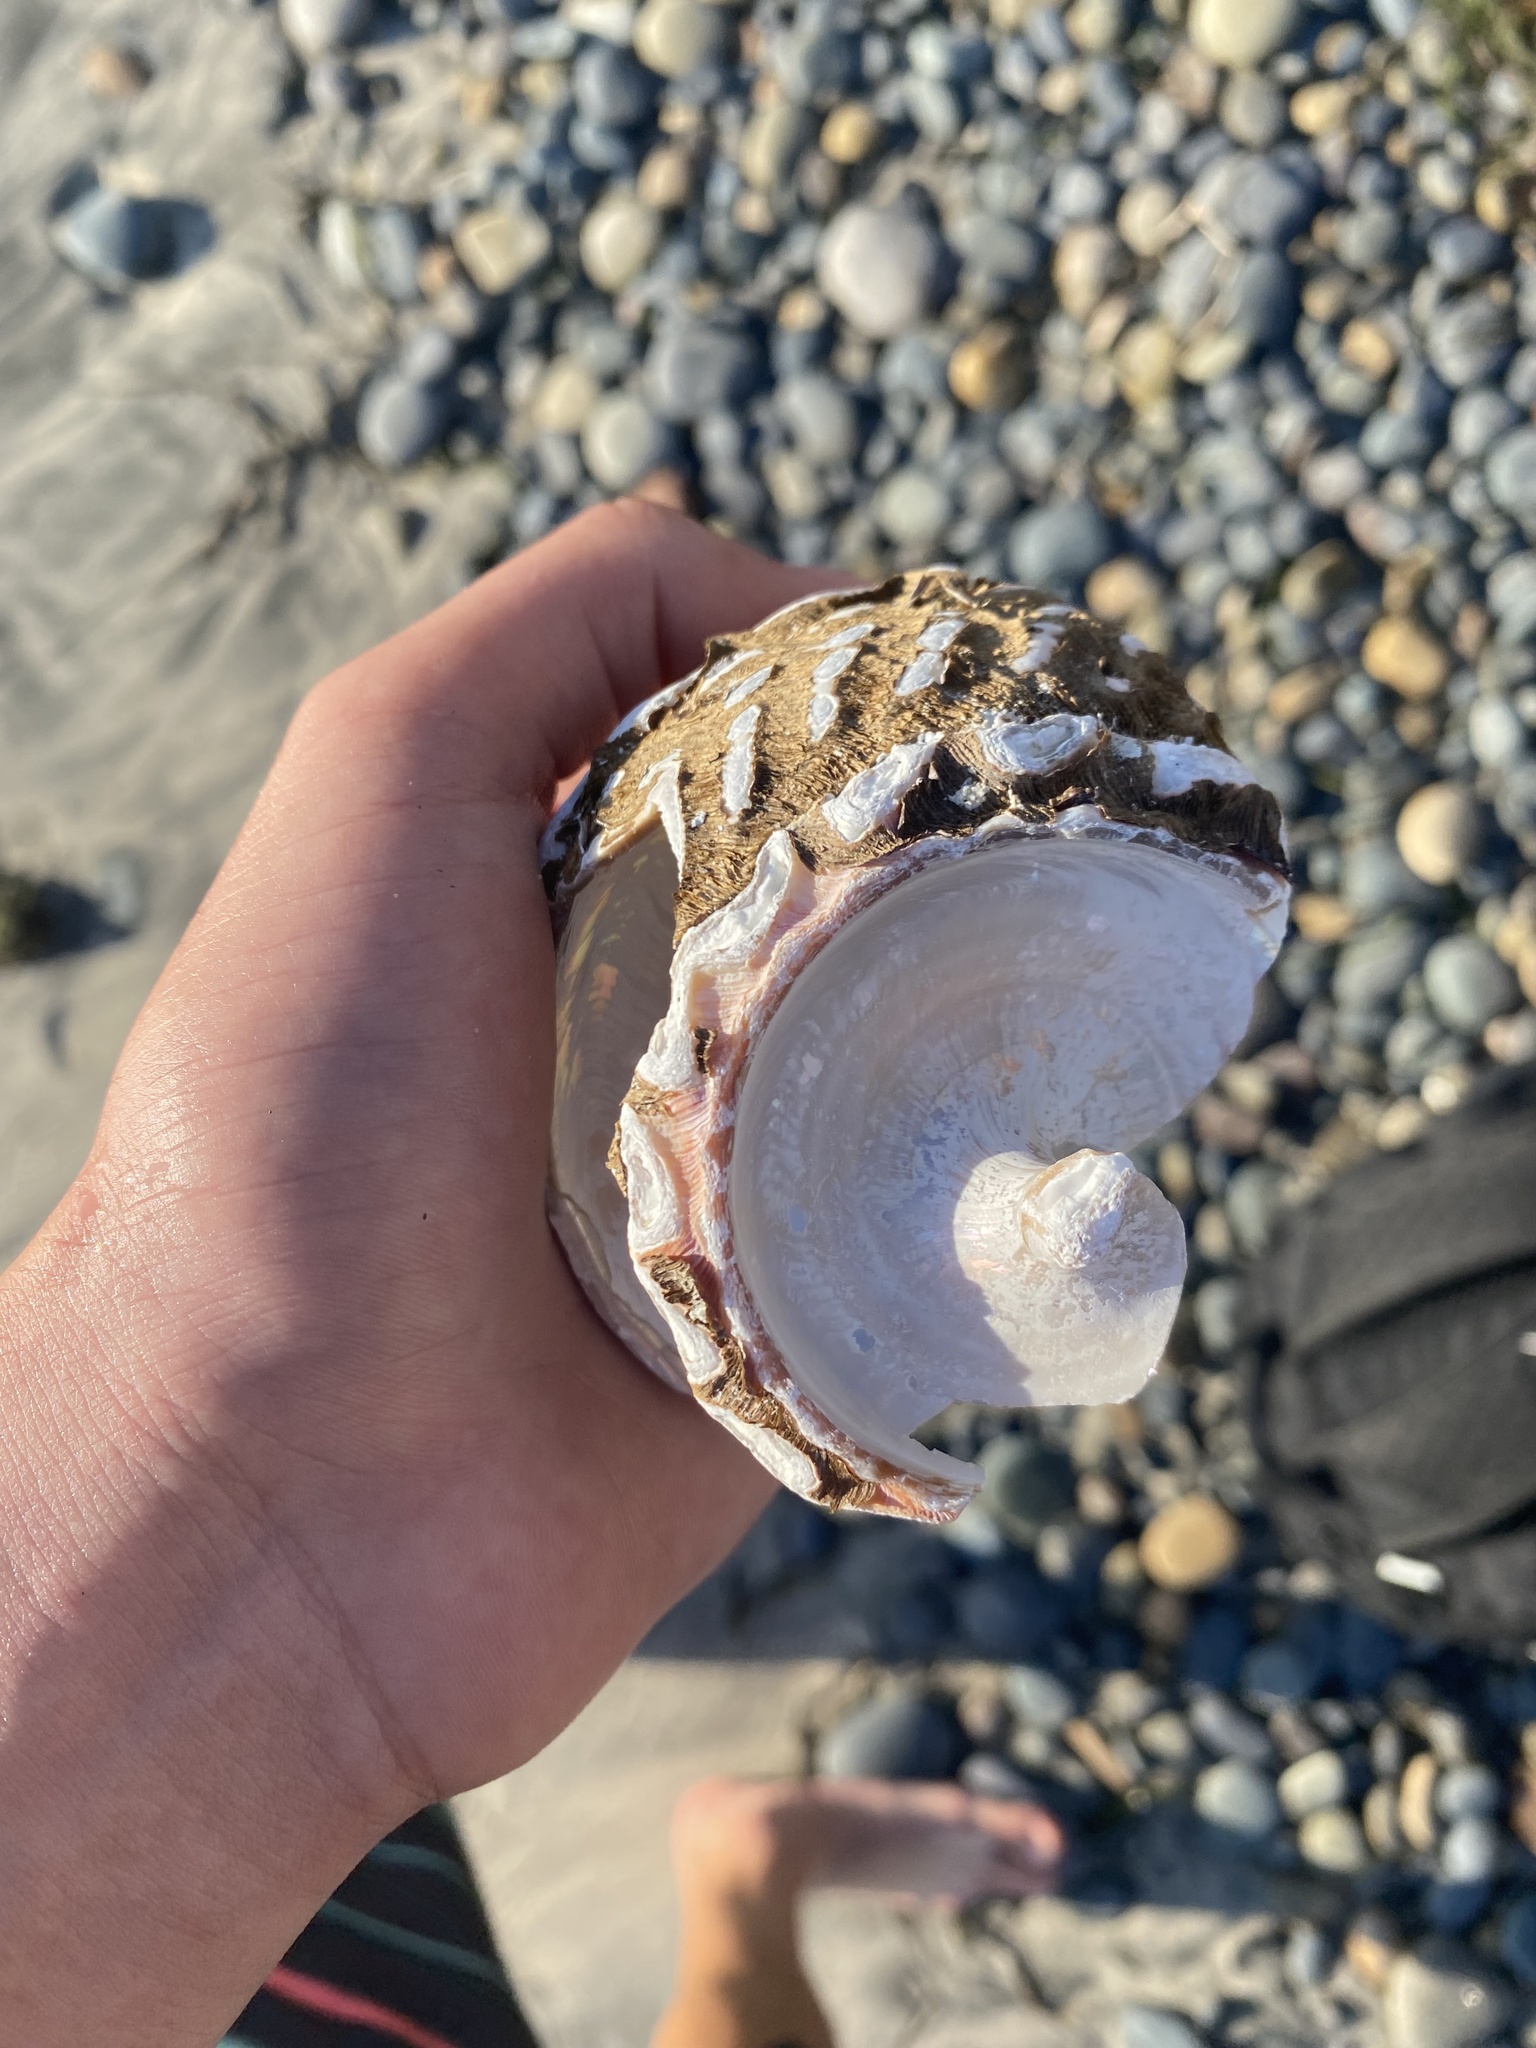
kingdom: Animalia
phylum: Mollusca
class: Gastropoda
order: Trochida
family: Turbinidae
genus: Megastraea
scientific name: Megastraea undosa
